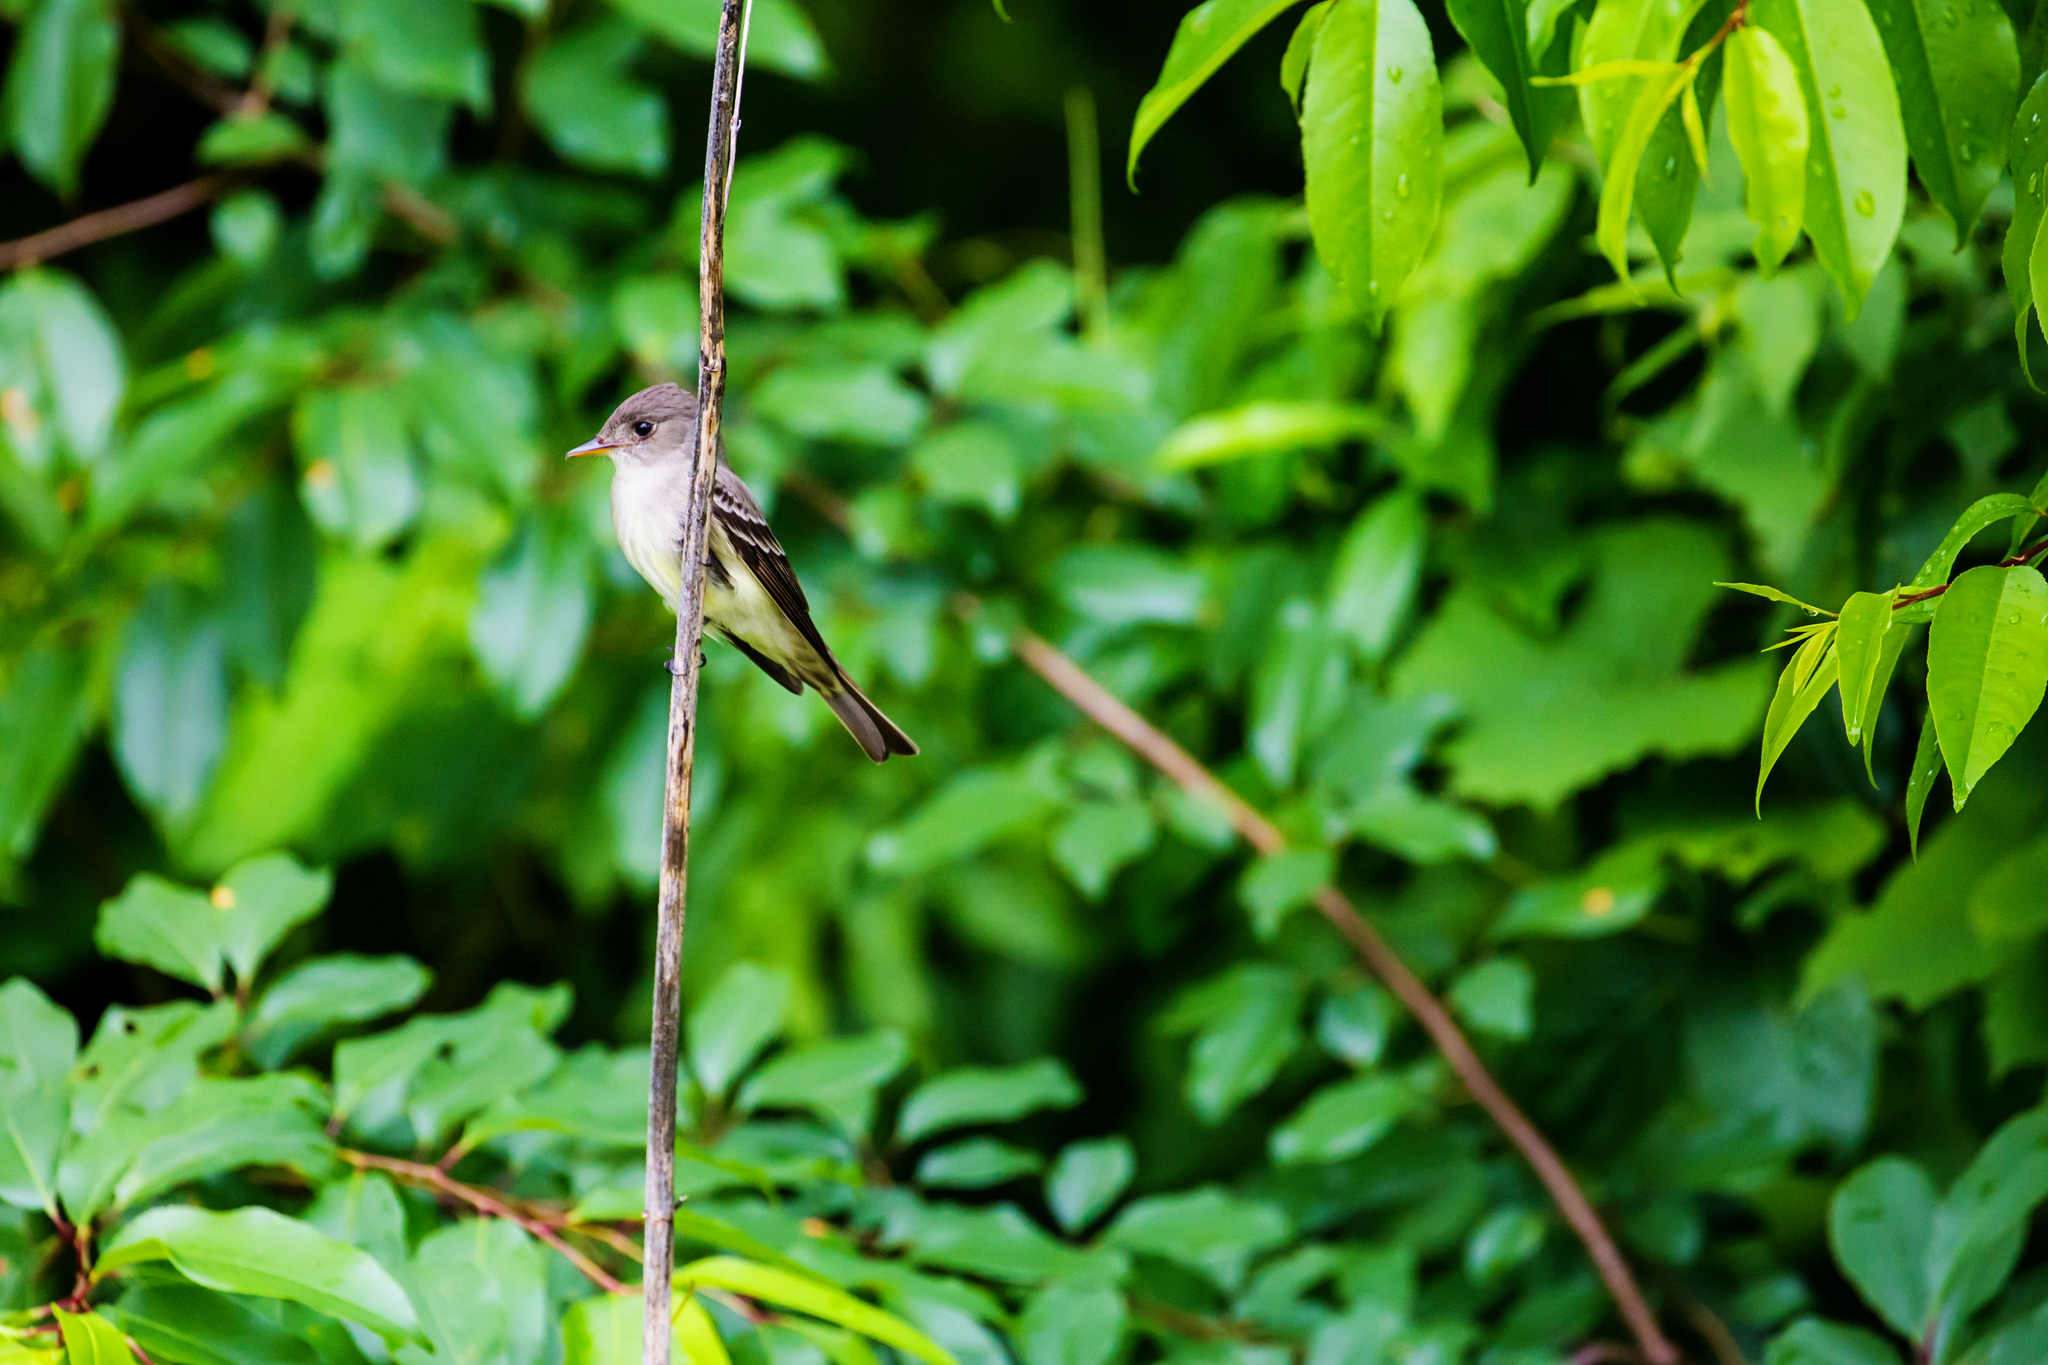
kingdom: Animalia
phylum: Chordata
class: Aves
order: Passeriformes
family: Tyrannidae
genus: Contopus
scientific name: Contopus virens
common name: Eastern wood-pewee
